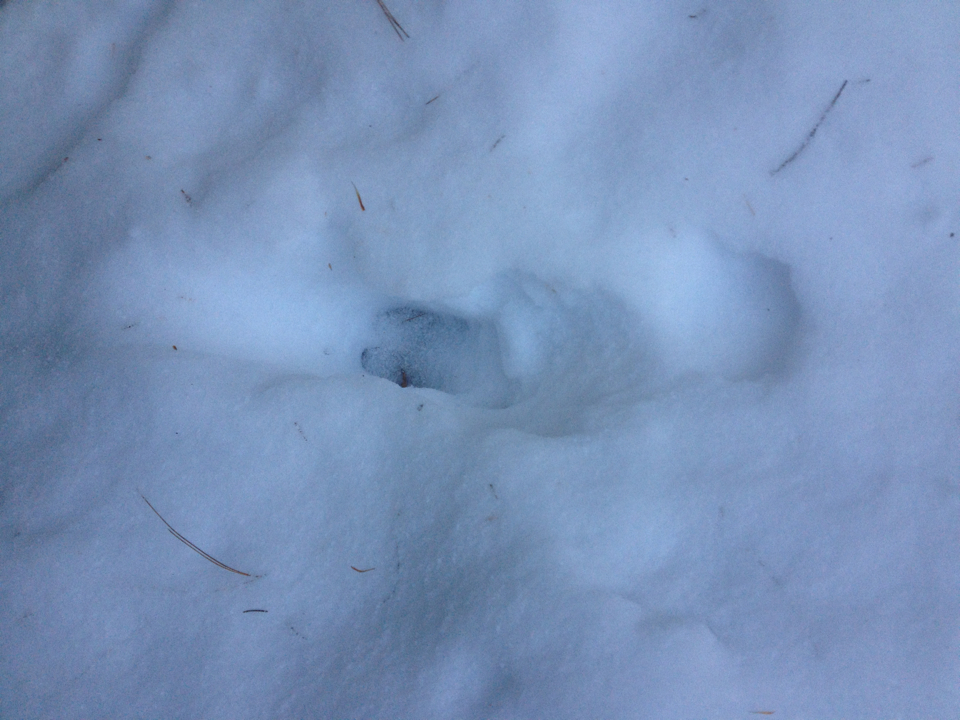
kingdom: Animalia
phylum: Chordata
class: Mammalia
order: Artiodactyla
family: Cervidae
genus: Odocoileus
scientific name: Odocoileus virginianus
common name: White-tailed deer
